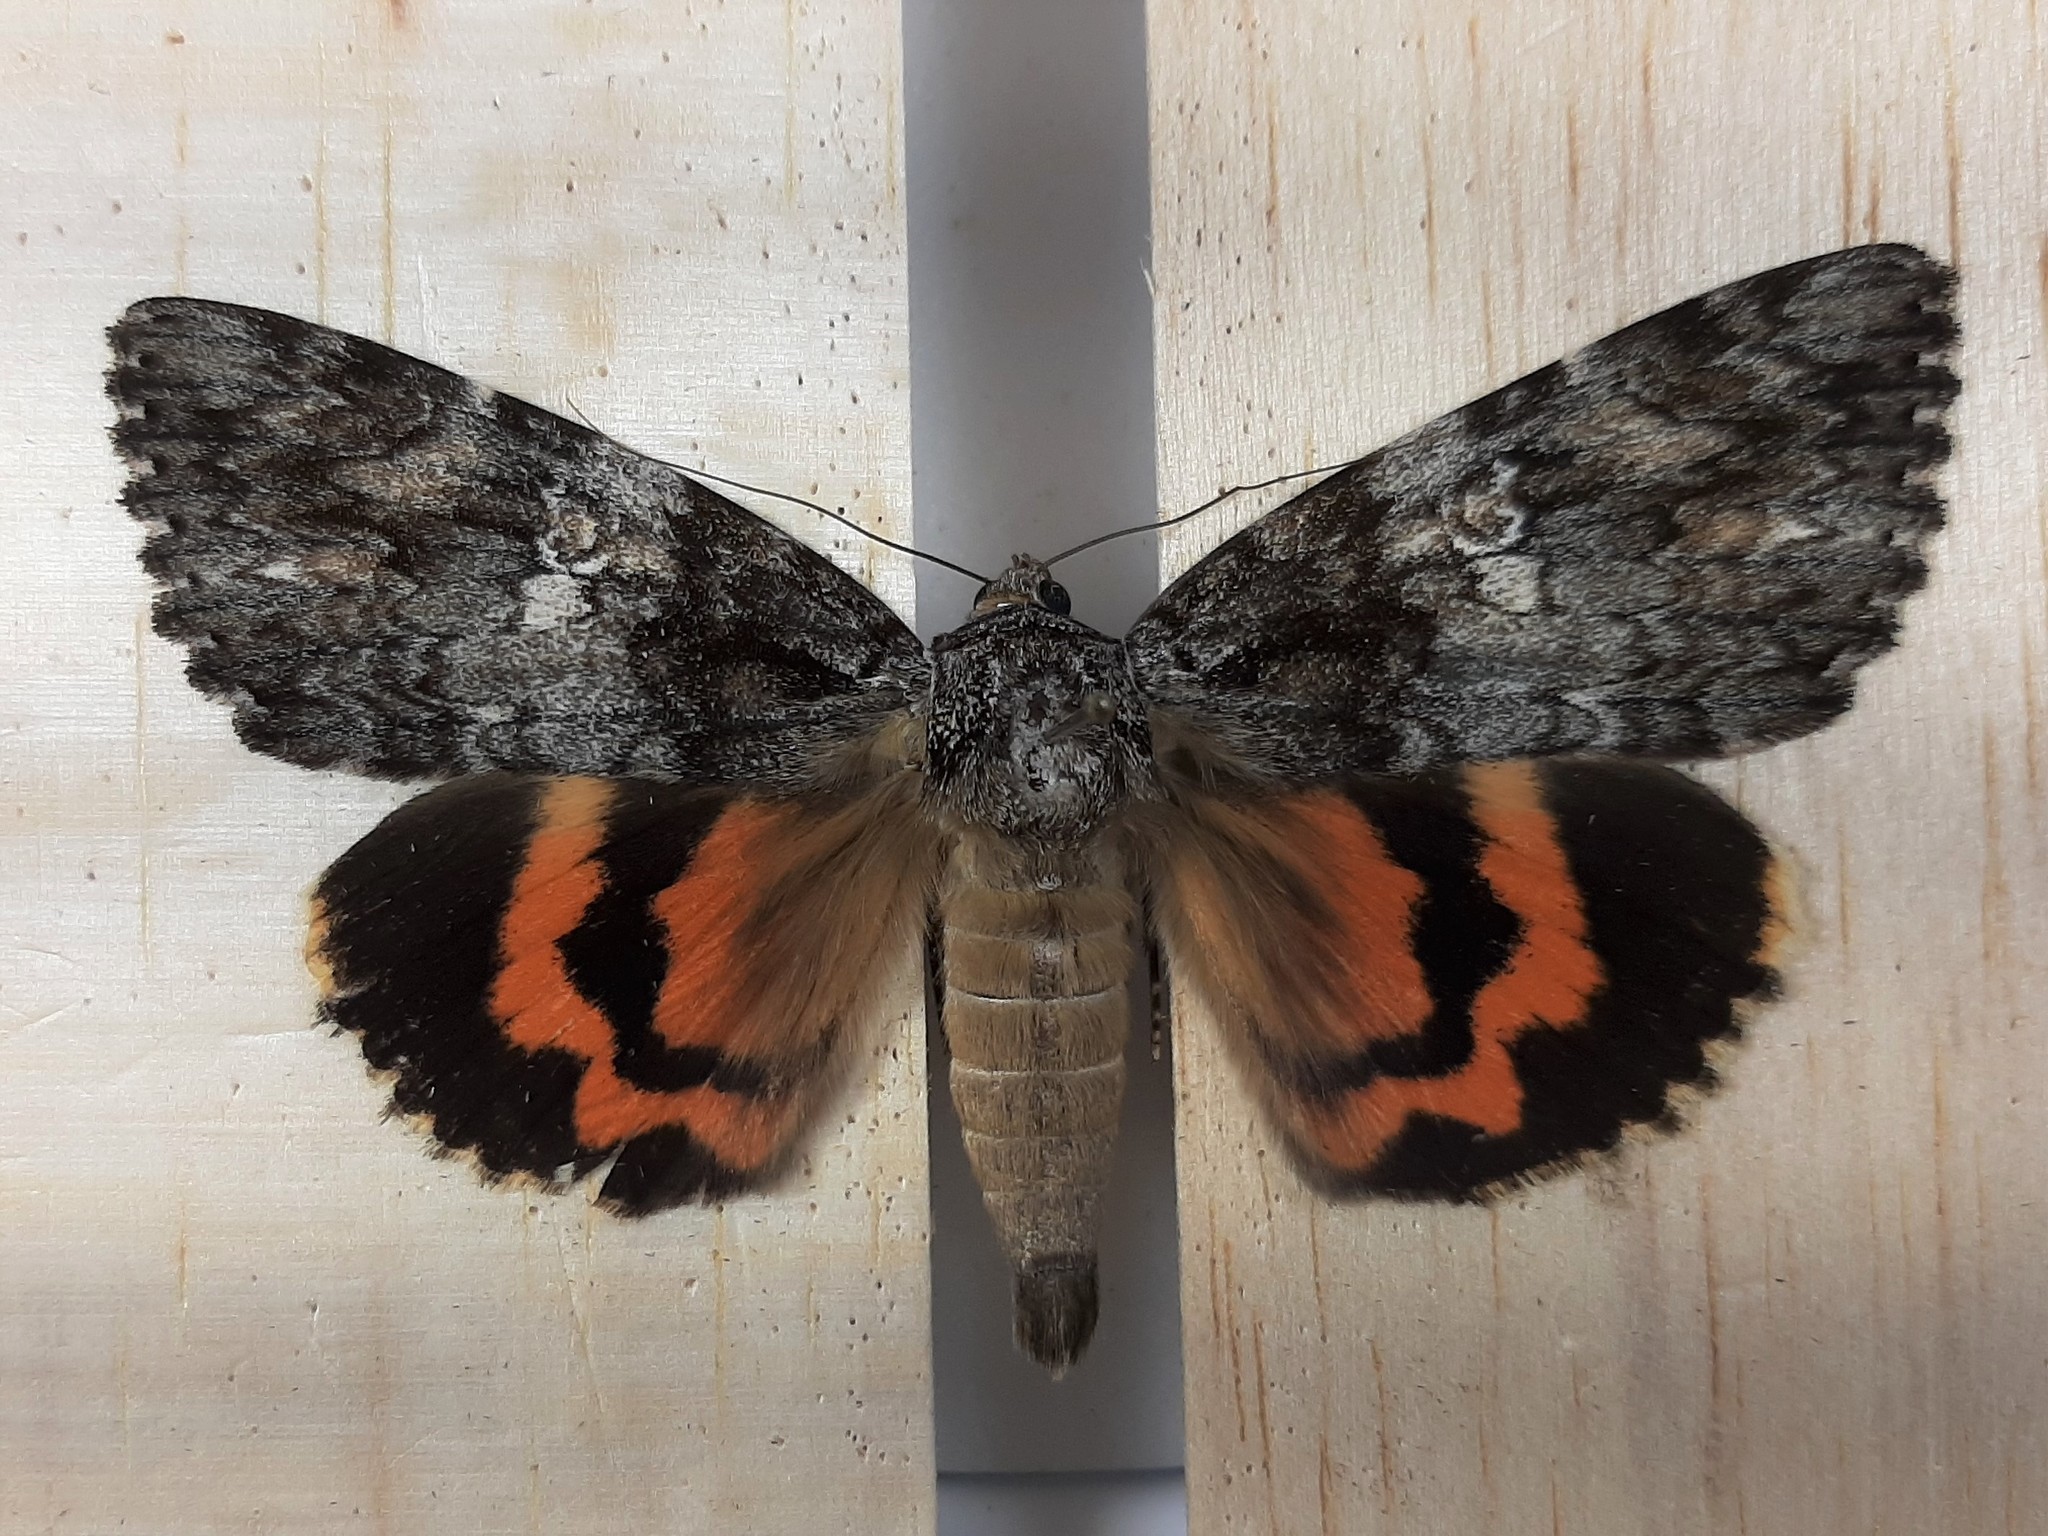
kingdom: Animalia
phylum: Arthropoda
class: Insecta
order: Lepidoptera
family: Erebidae
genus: Catocala
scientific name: Catocala ilia
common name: Ilia underwing
